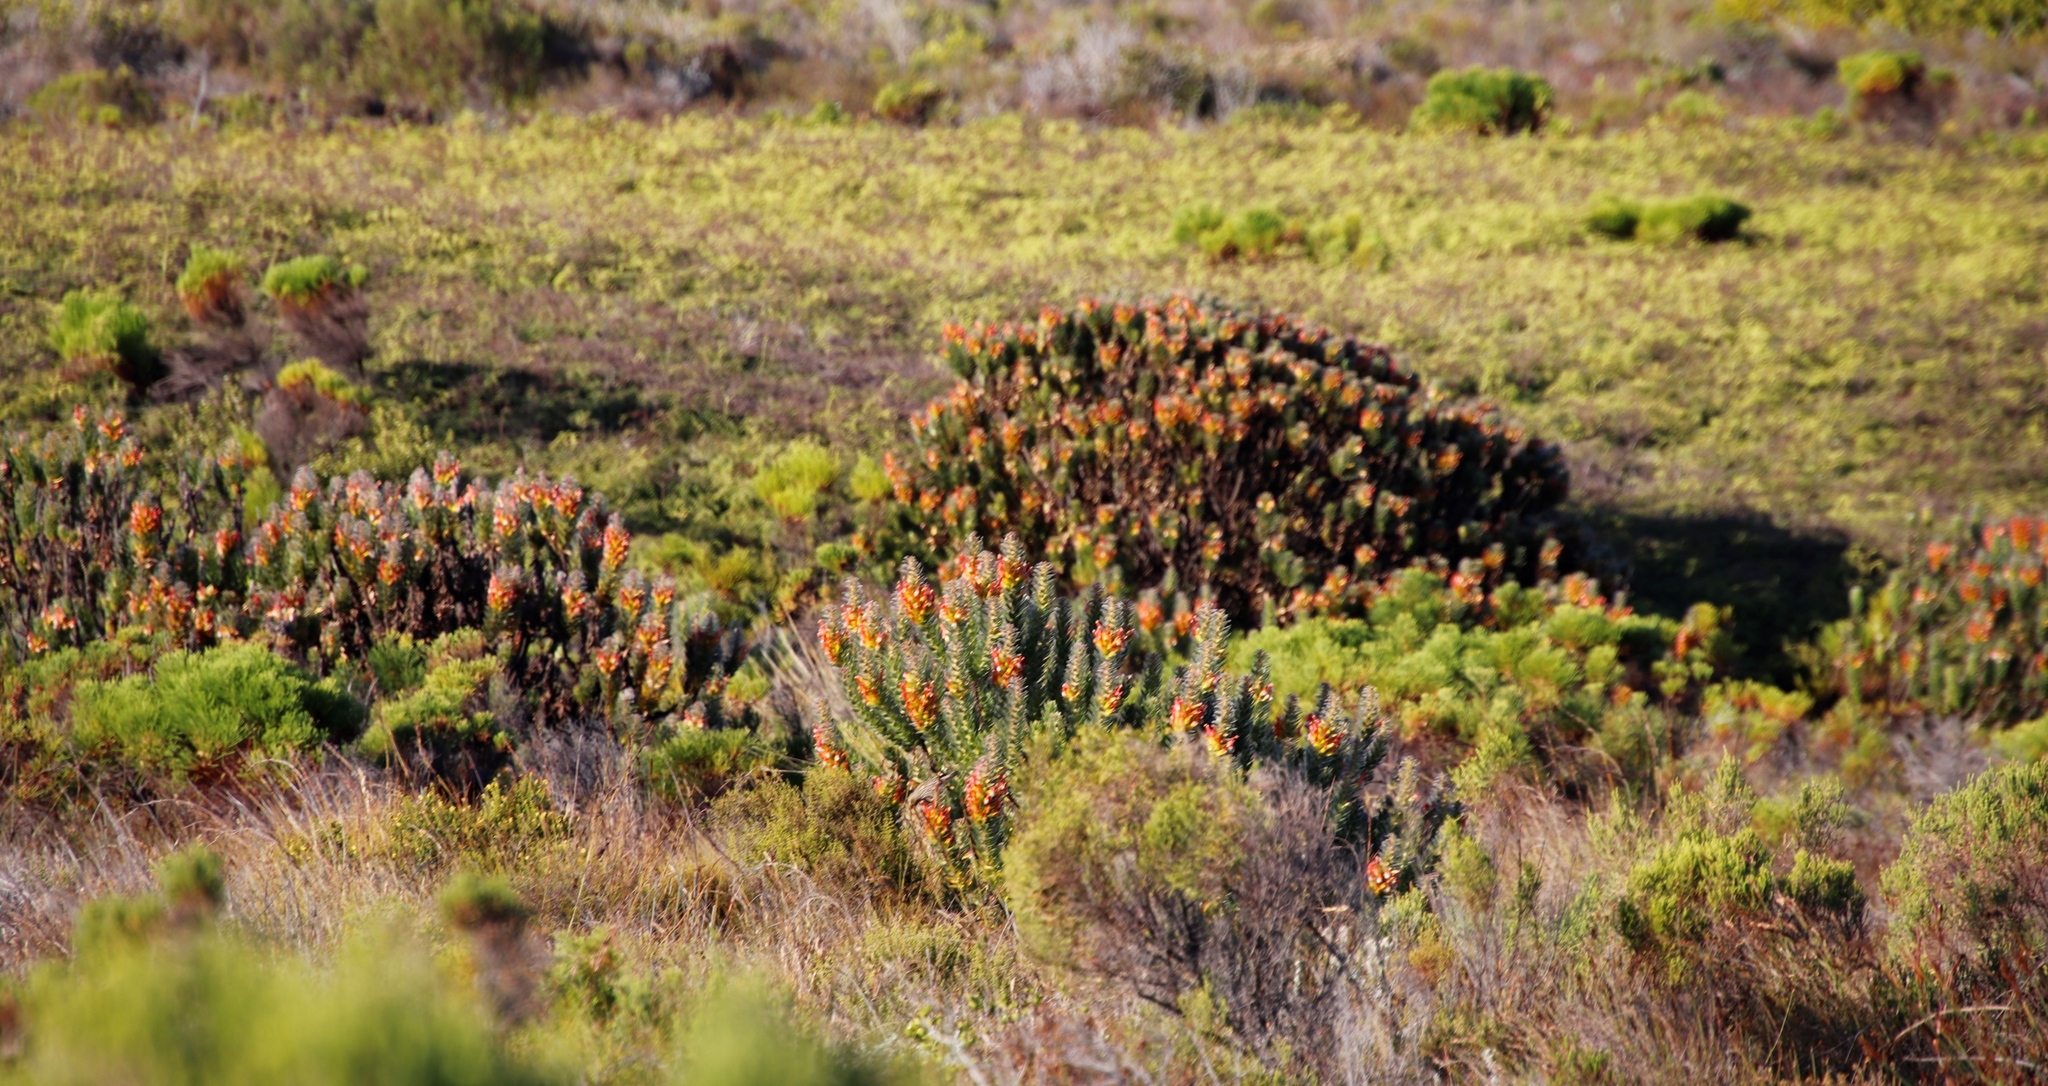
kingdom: Plantae
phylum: Tracheophyta
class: Magnoliopsida
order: Proteales
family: Proteaceae
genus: Mimetes
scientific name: Mimetes hirtus
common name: Marsh pagoda
